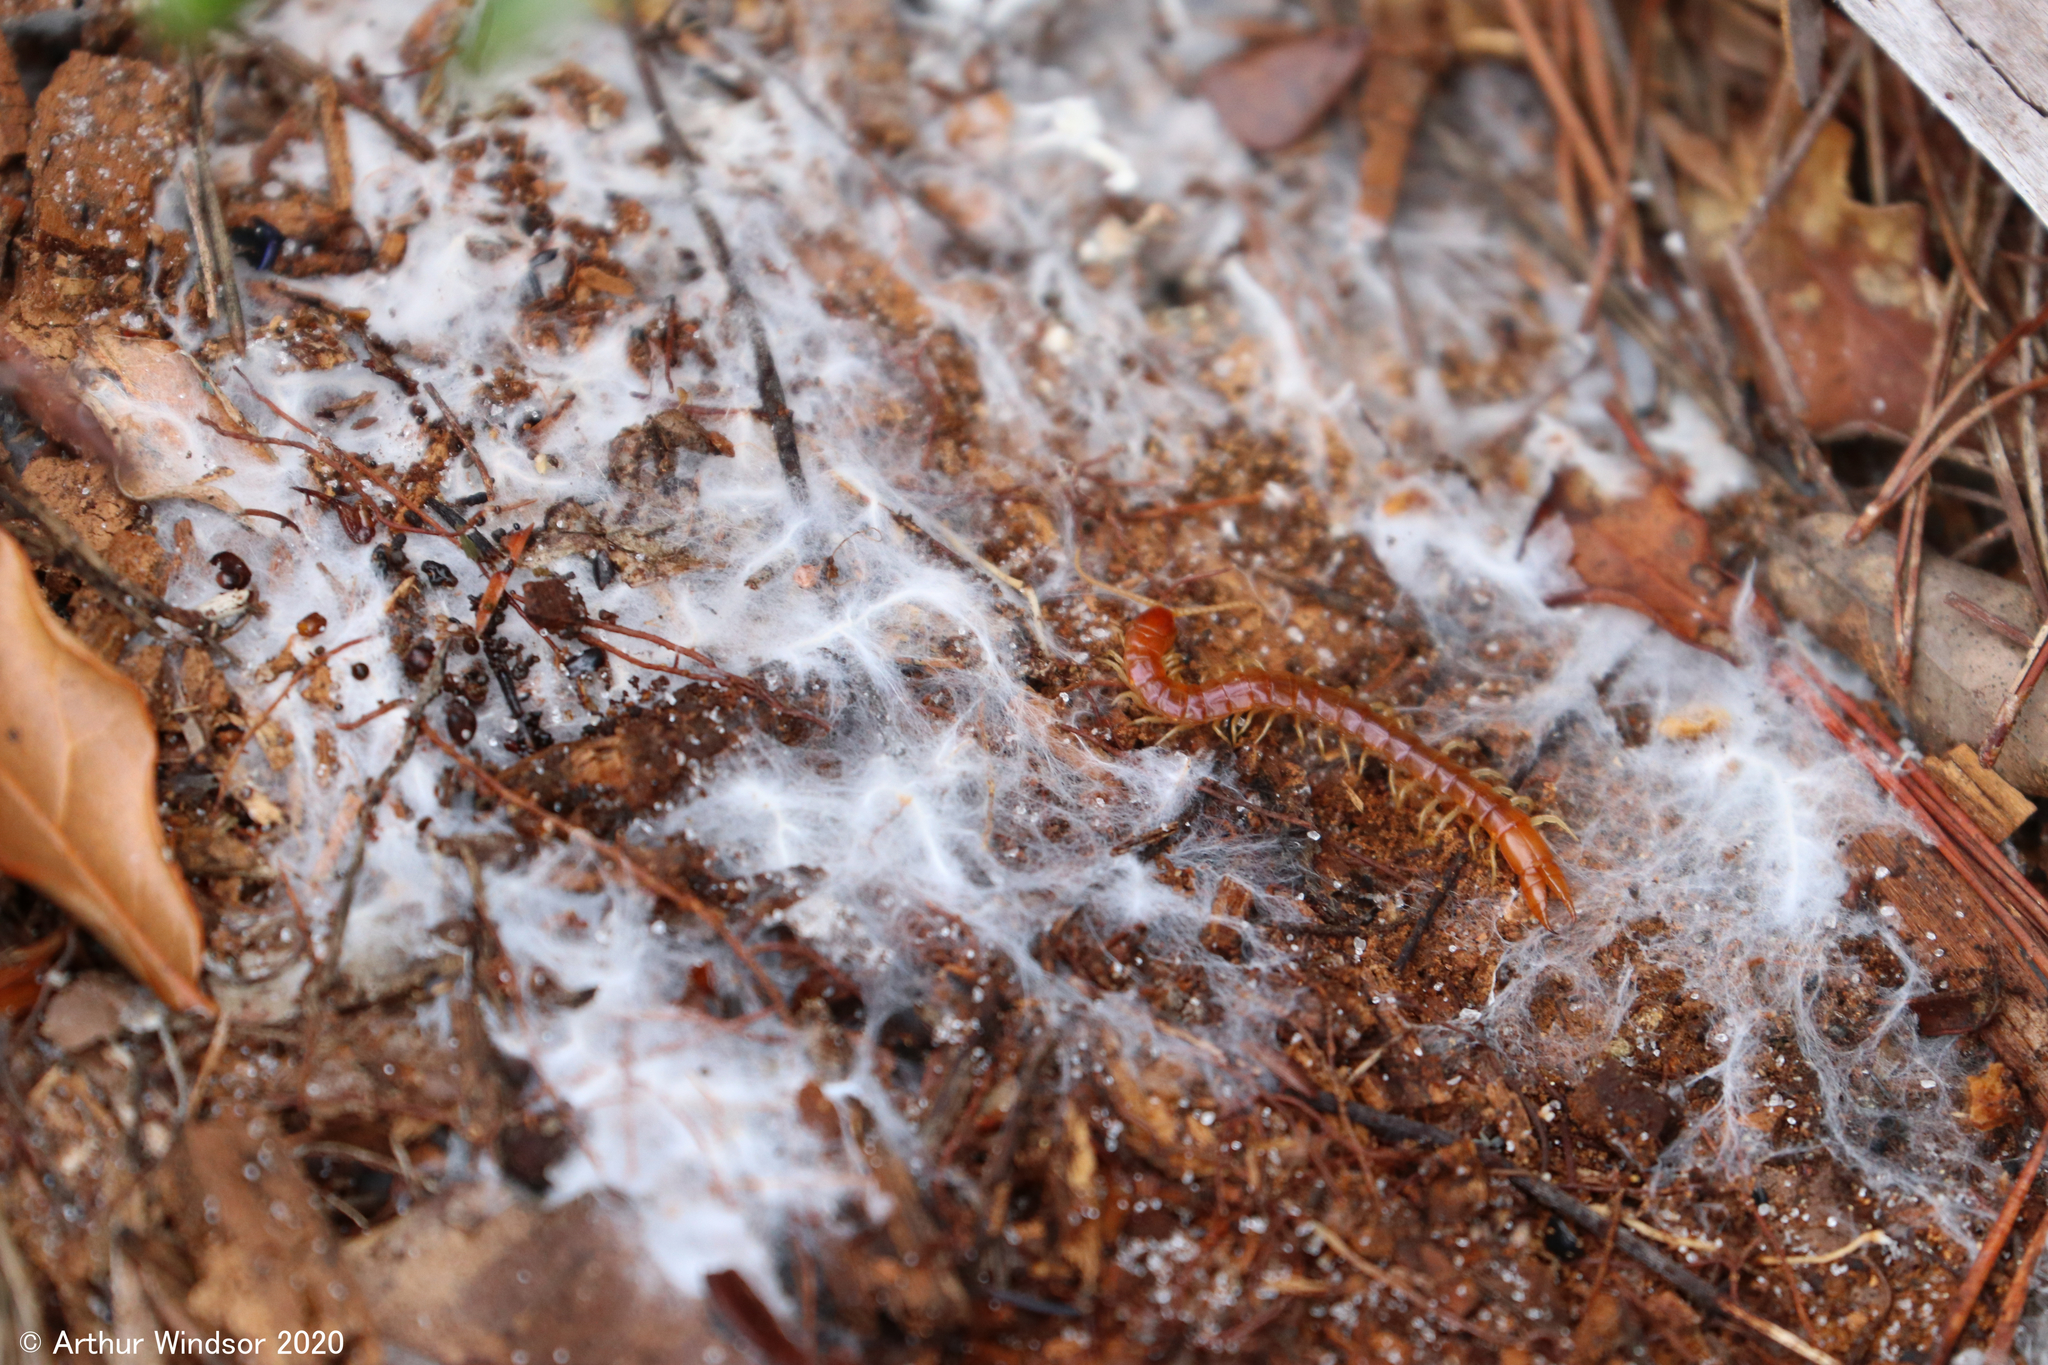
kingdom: Animalia
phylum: Arthropoda
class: Chilopoda
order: Scolopendromorpha
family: Cryptopidae
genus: Theatops
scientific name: Theatops posticus
